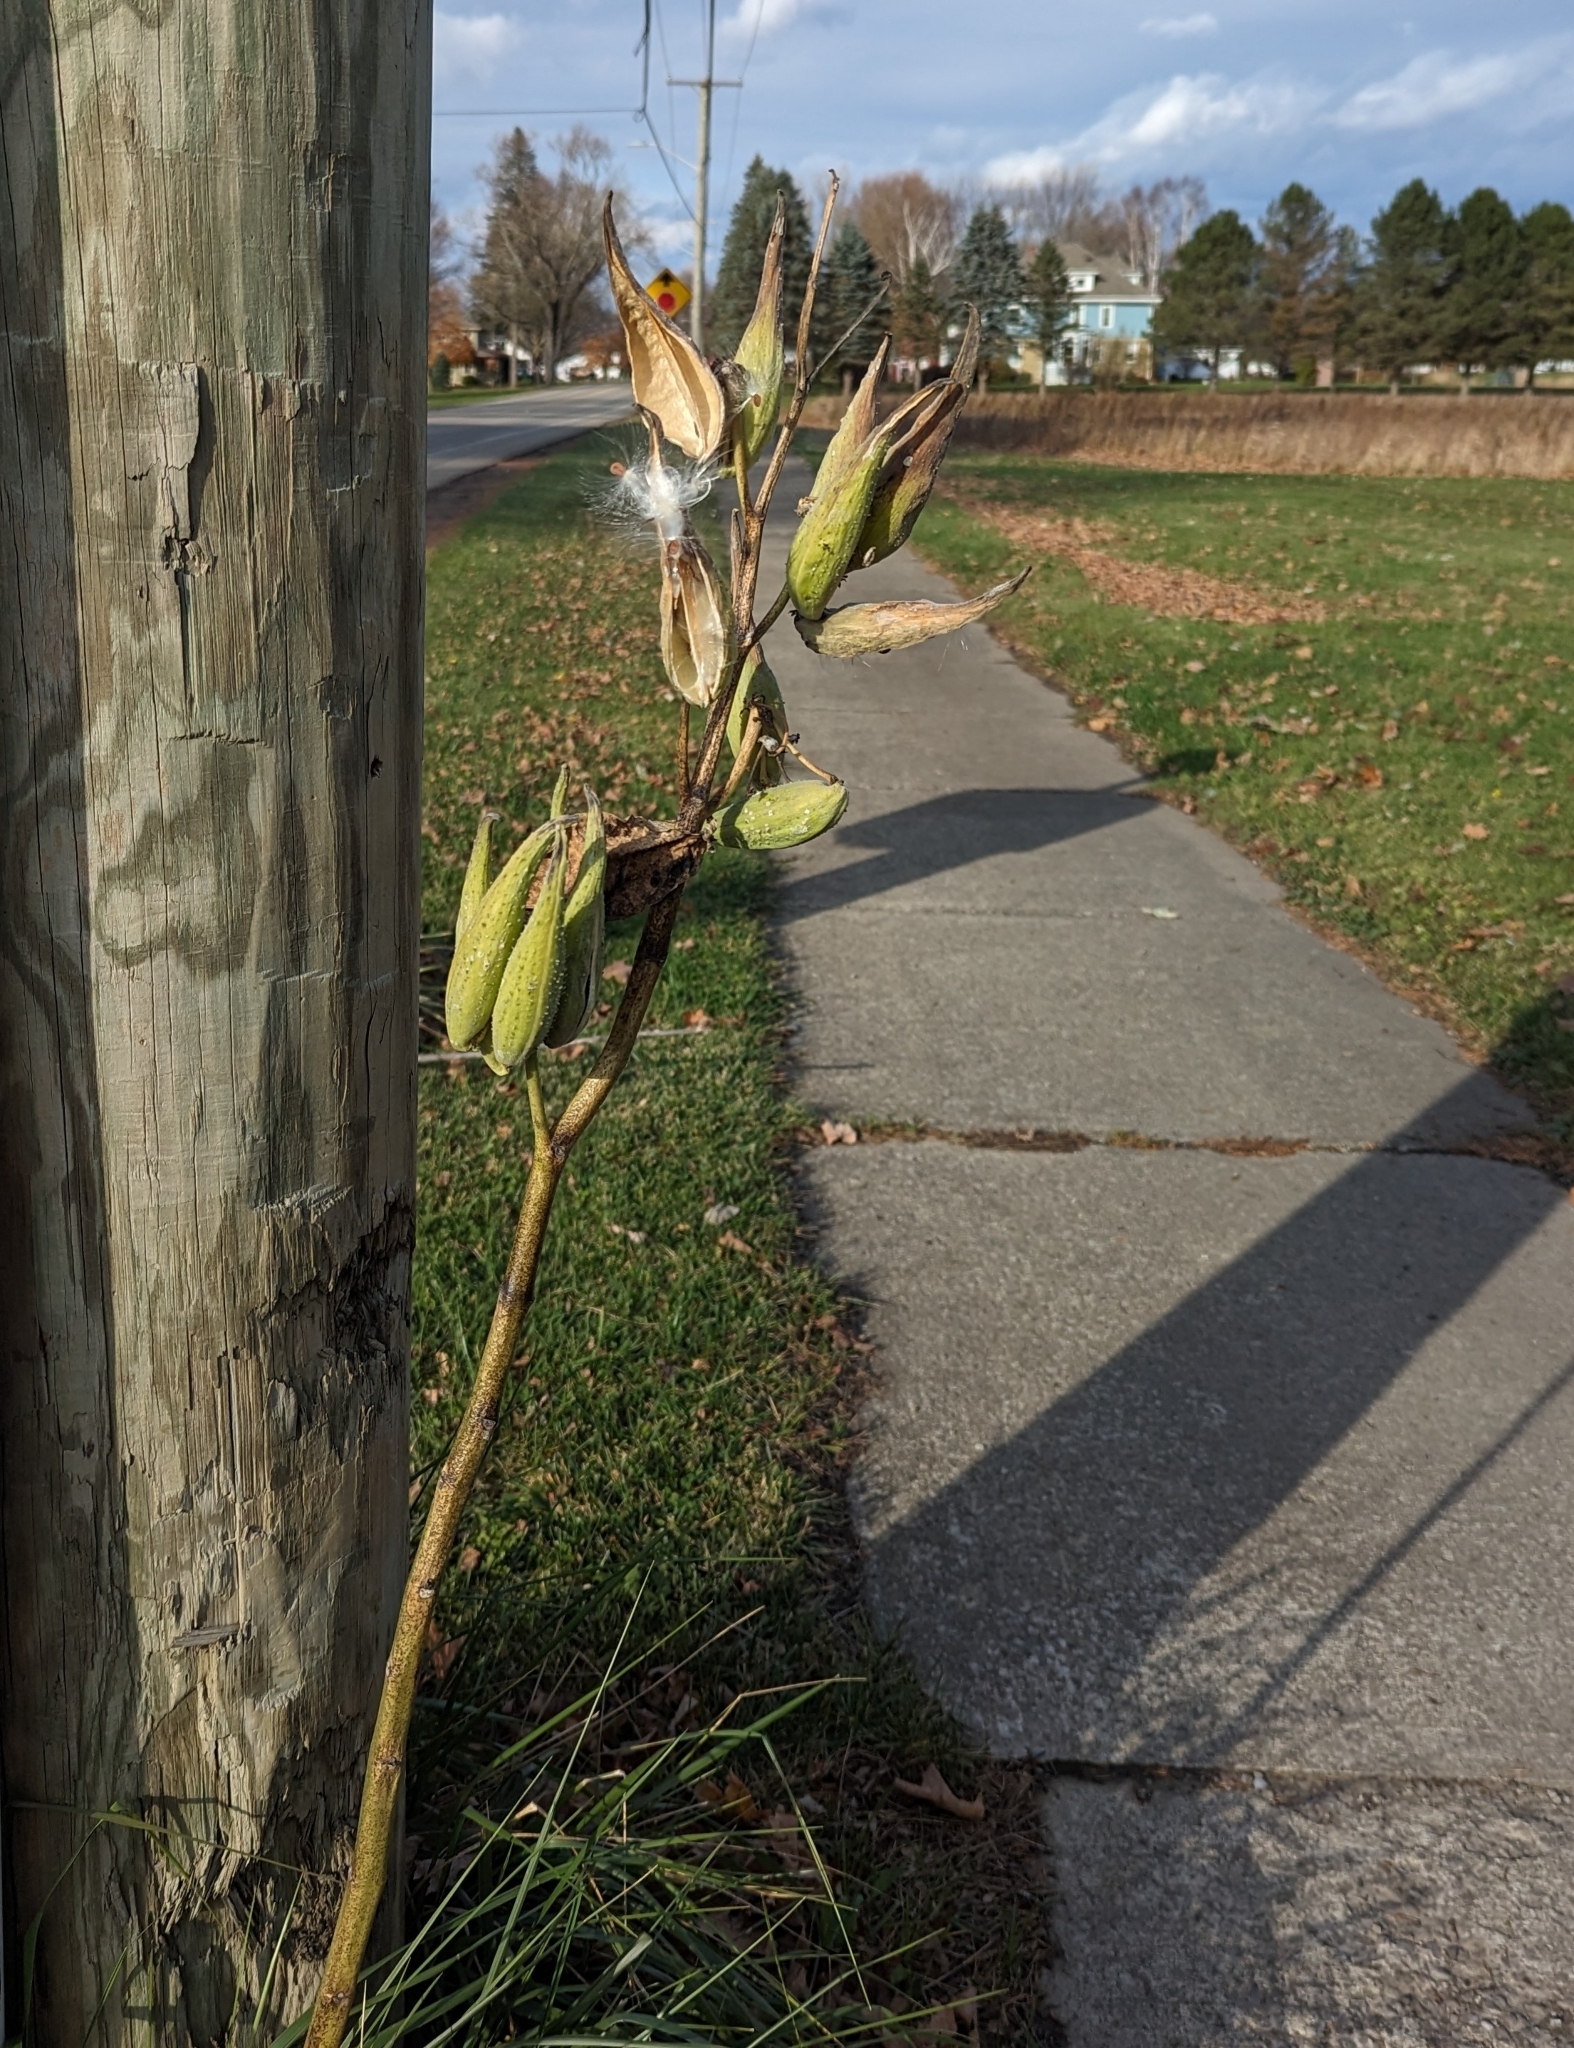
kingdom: Plantae
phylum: Tracheophyta
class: Magnoliopsida
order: Gentianales
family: Apocynaceae
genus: Asclepias
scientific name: Asclepias syriaca
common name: Common milkweed
